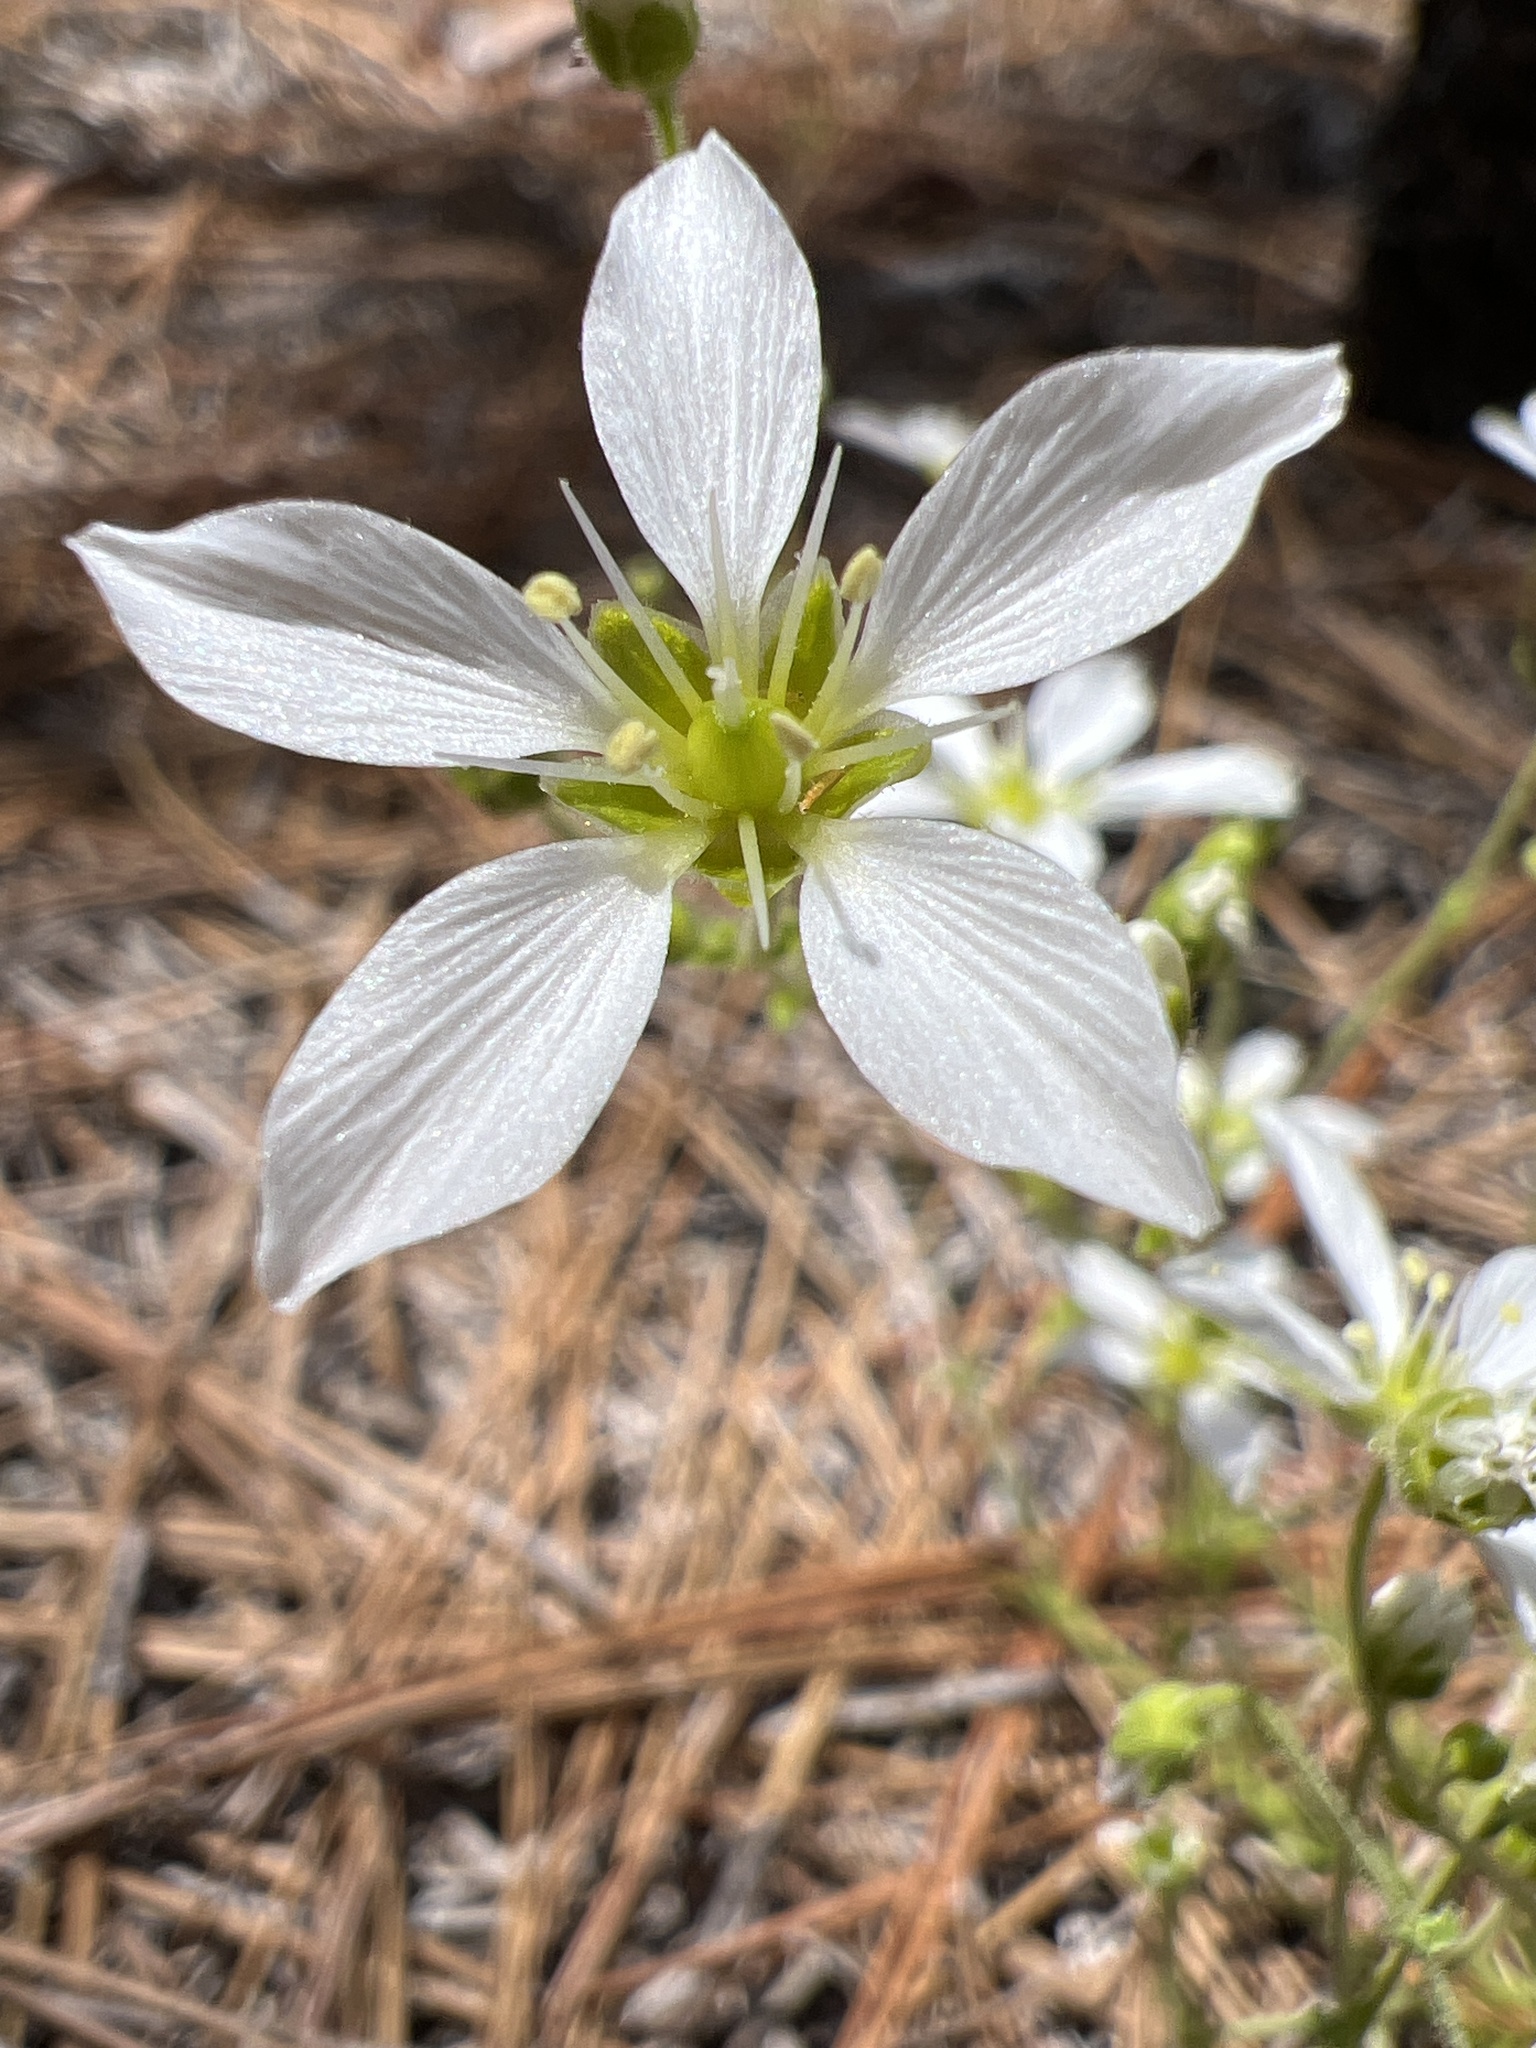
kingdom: Plantae
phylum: Tracheophyta
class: Magnoliopsida
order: Caryophyllales
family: Caryophyllaceae
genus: Geocarpon
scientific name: Geocarpon carolinianum
